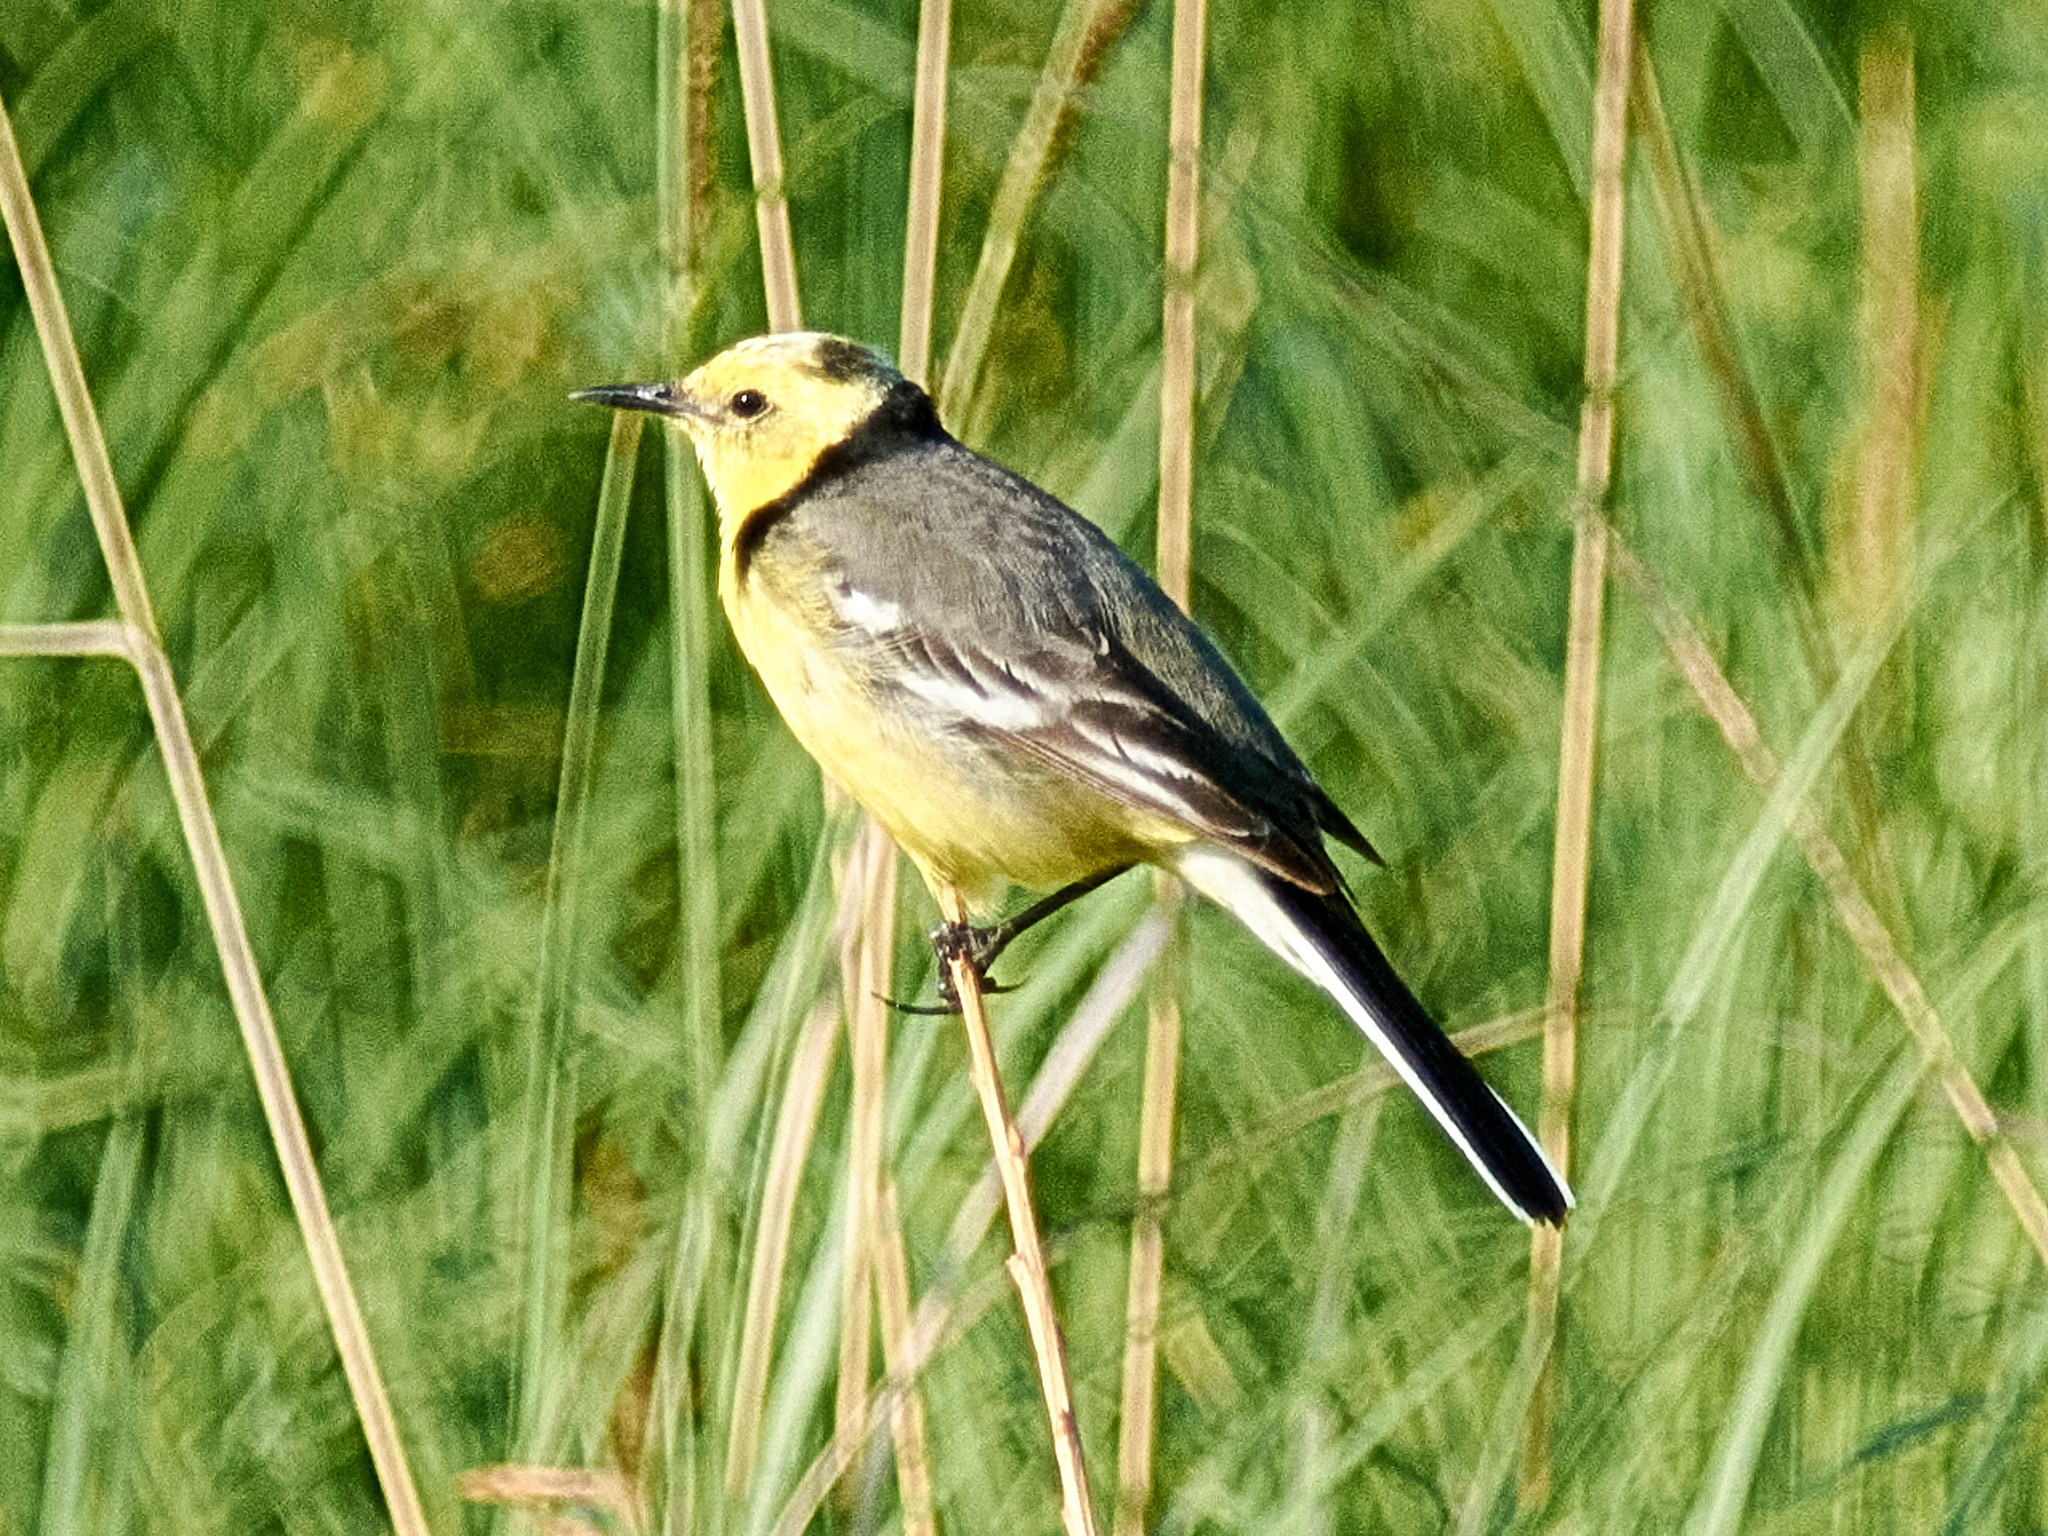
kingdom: Animalia
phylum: Chordata
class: Aves
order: Passeriformes
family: Motacillidae
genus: Motacilla
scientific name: Motacilla citreola
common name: Citrine wagtail
